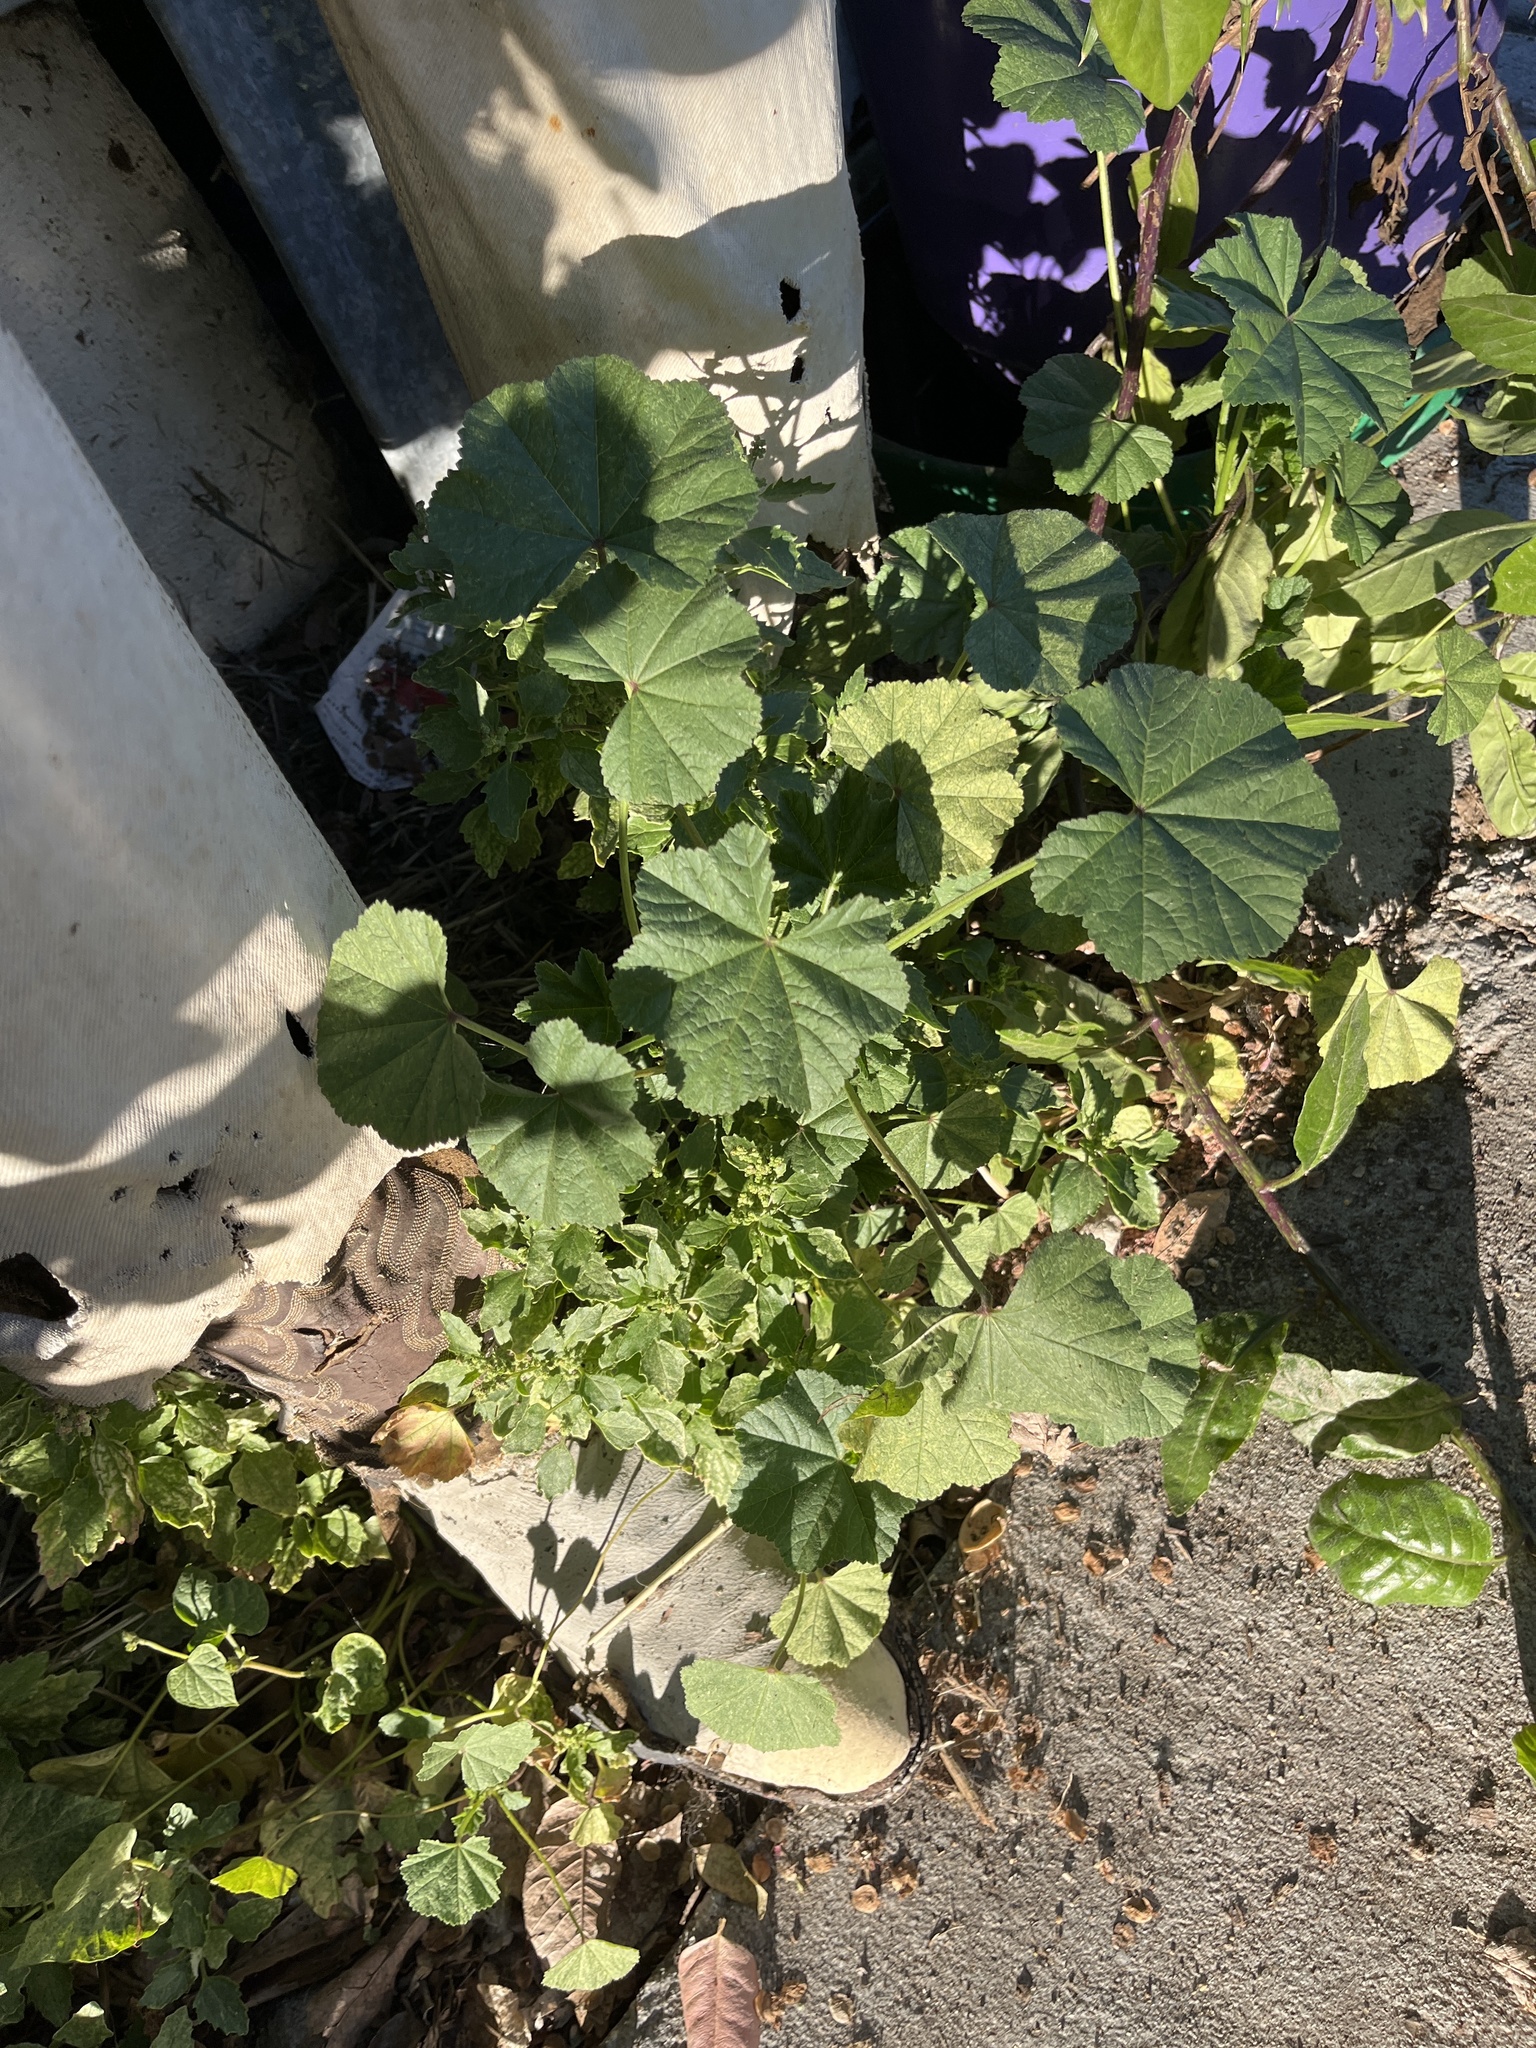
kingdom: Plantae
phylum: Tracheophyta
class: Magnoliopsida
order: Malvales
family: Malvaceae
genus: Malva
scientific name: Malva
